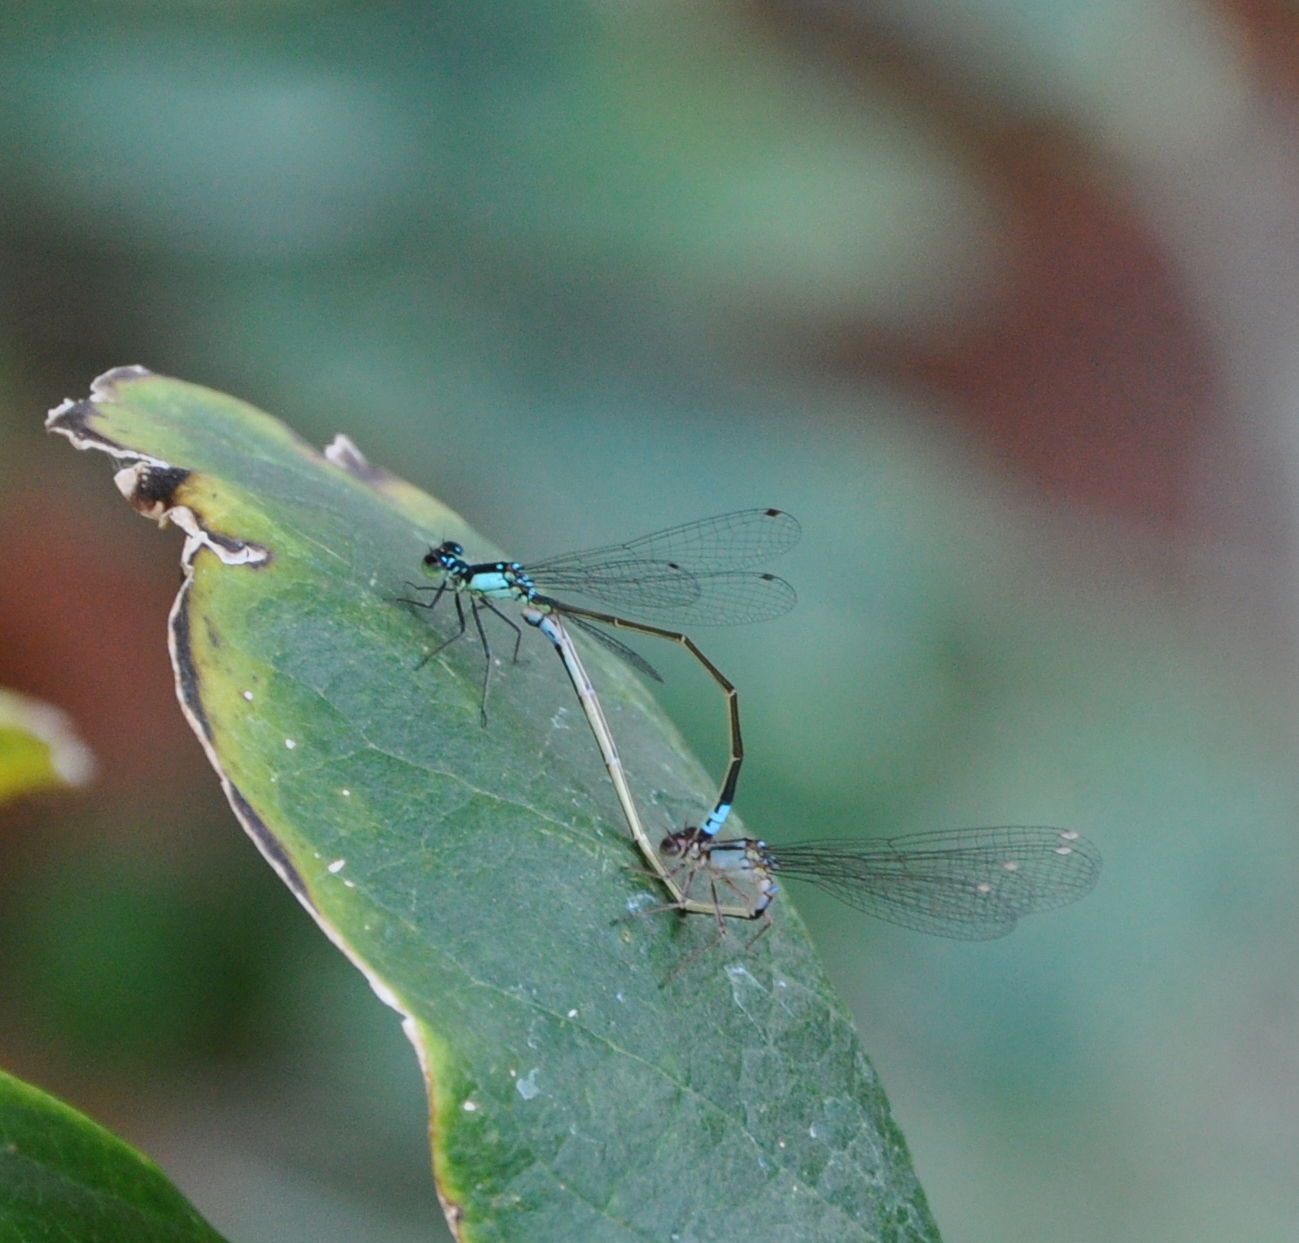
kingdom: Animalia
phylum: Arthropoda
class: Insecta
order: Odonata
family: Coenagrionidae
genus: Ischnura
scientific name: Ischnura cervula
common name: Pacific forktail
